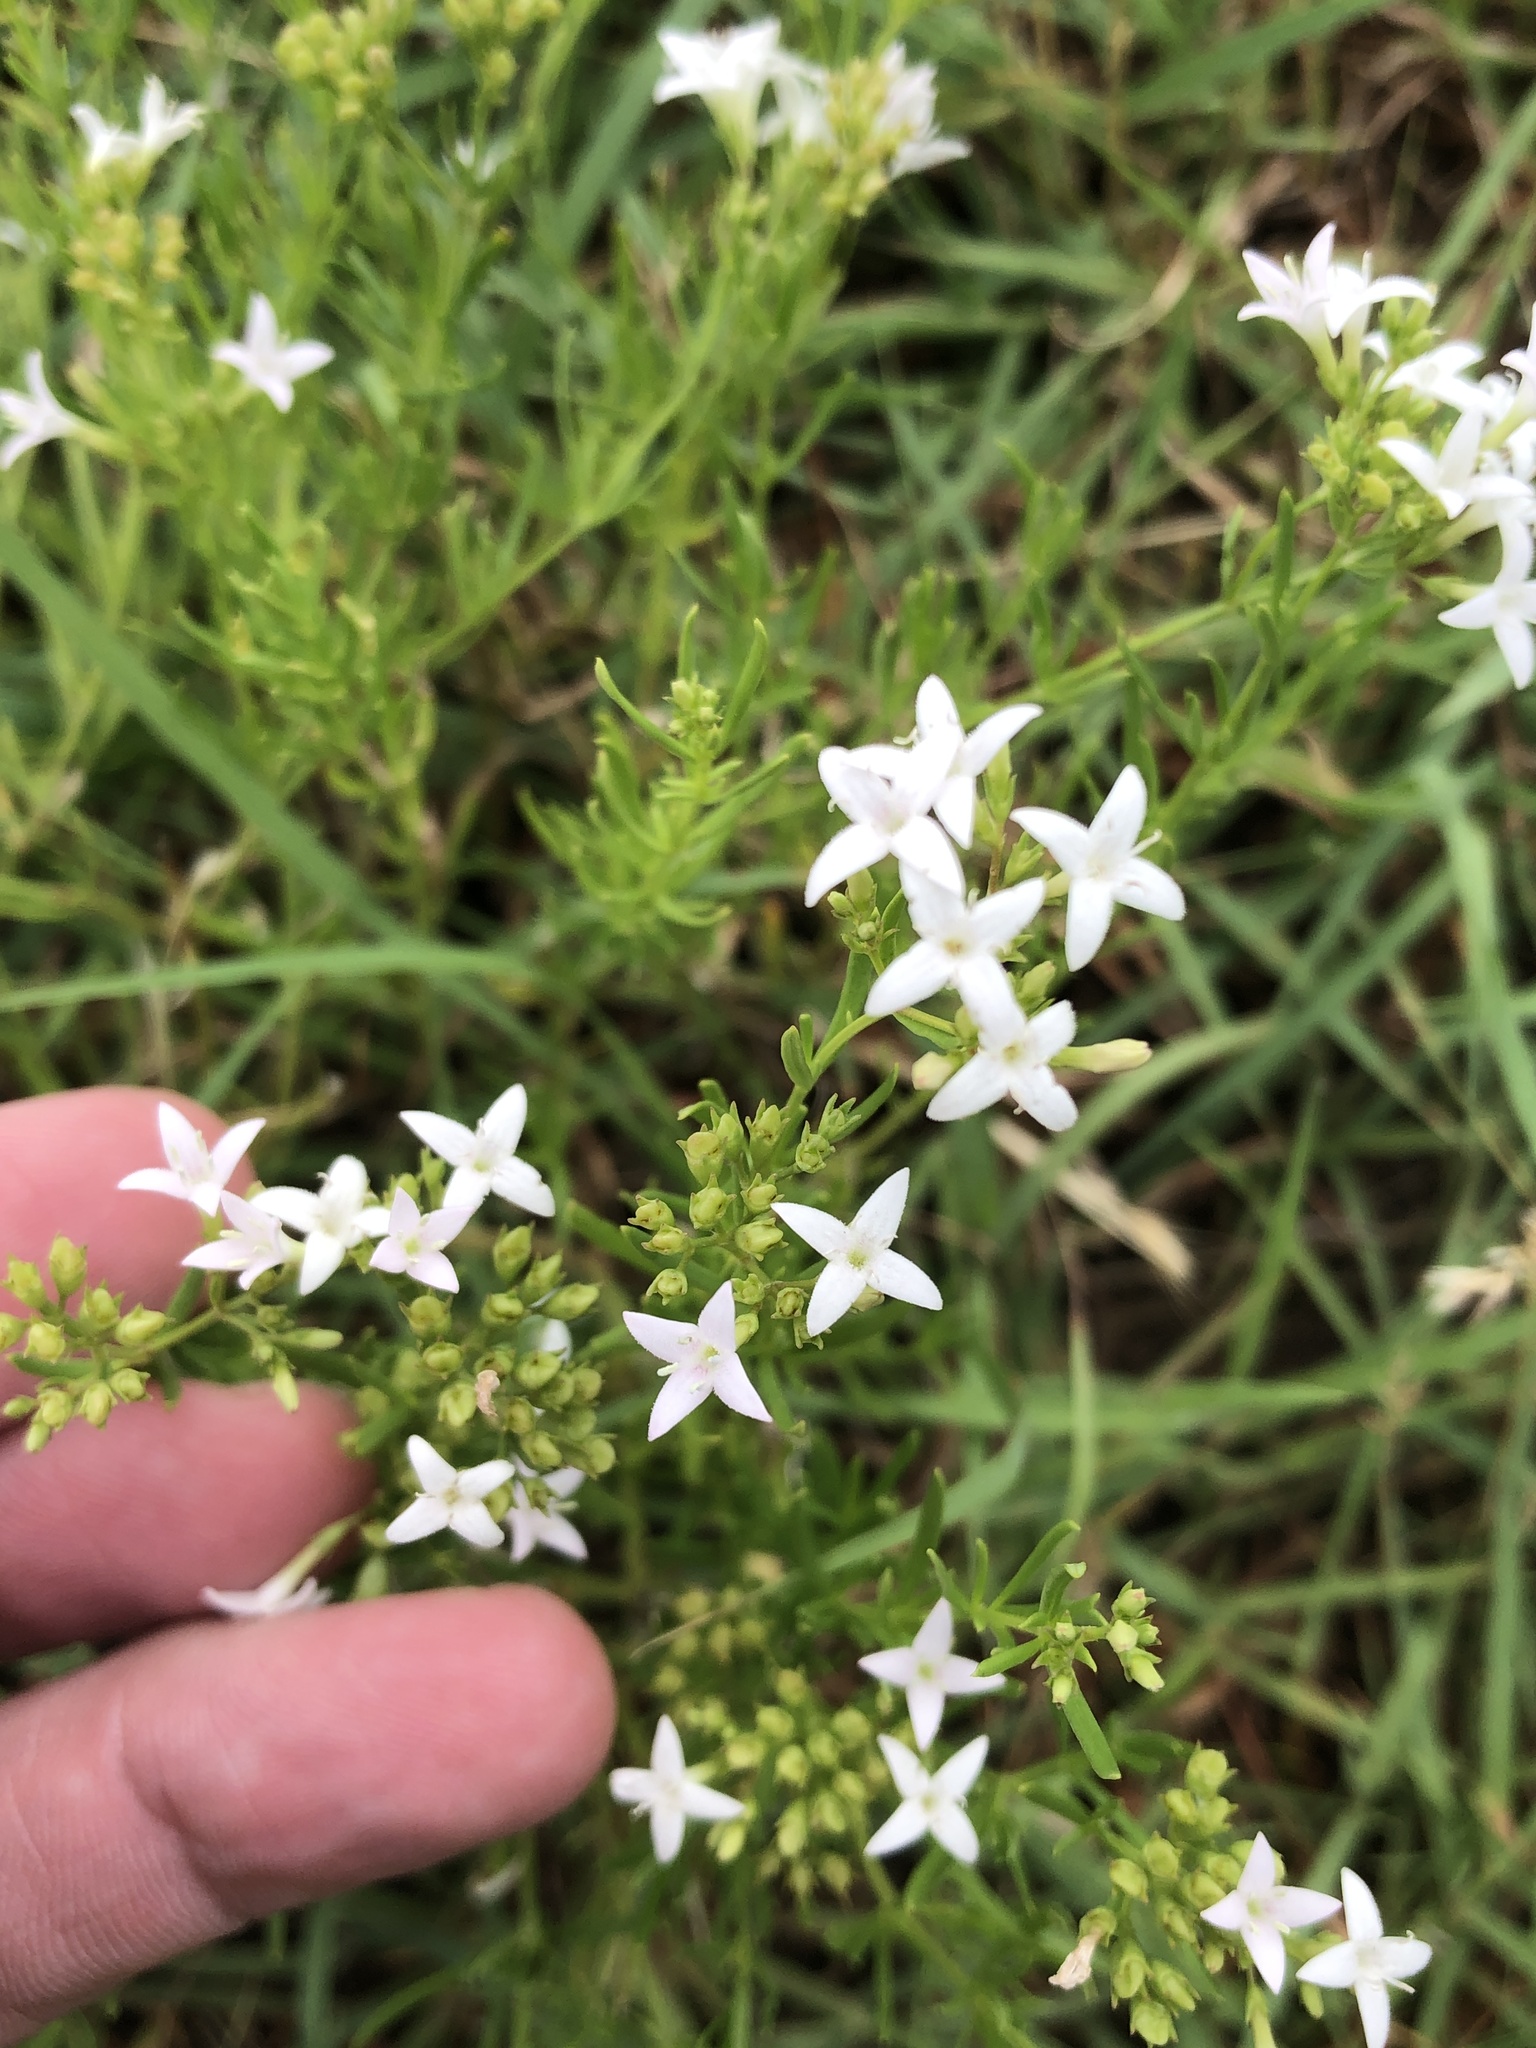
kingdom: Plantae
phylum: Tracheophyta
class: Magnoliopsida
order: Gentianales
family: Rubiaceae
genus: Stenaria
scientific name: Stenaria nigricans
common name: Diamondflowers
